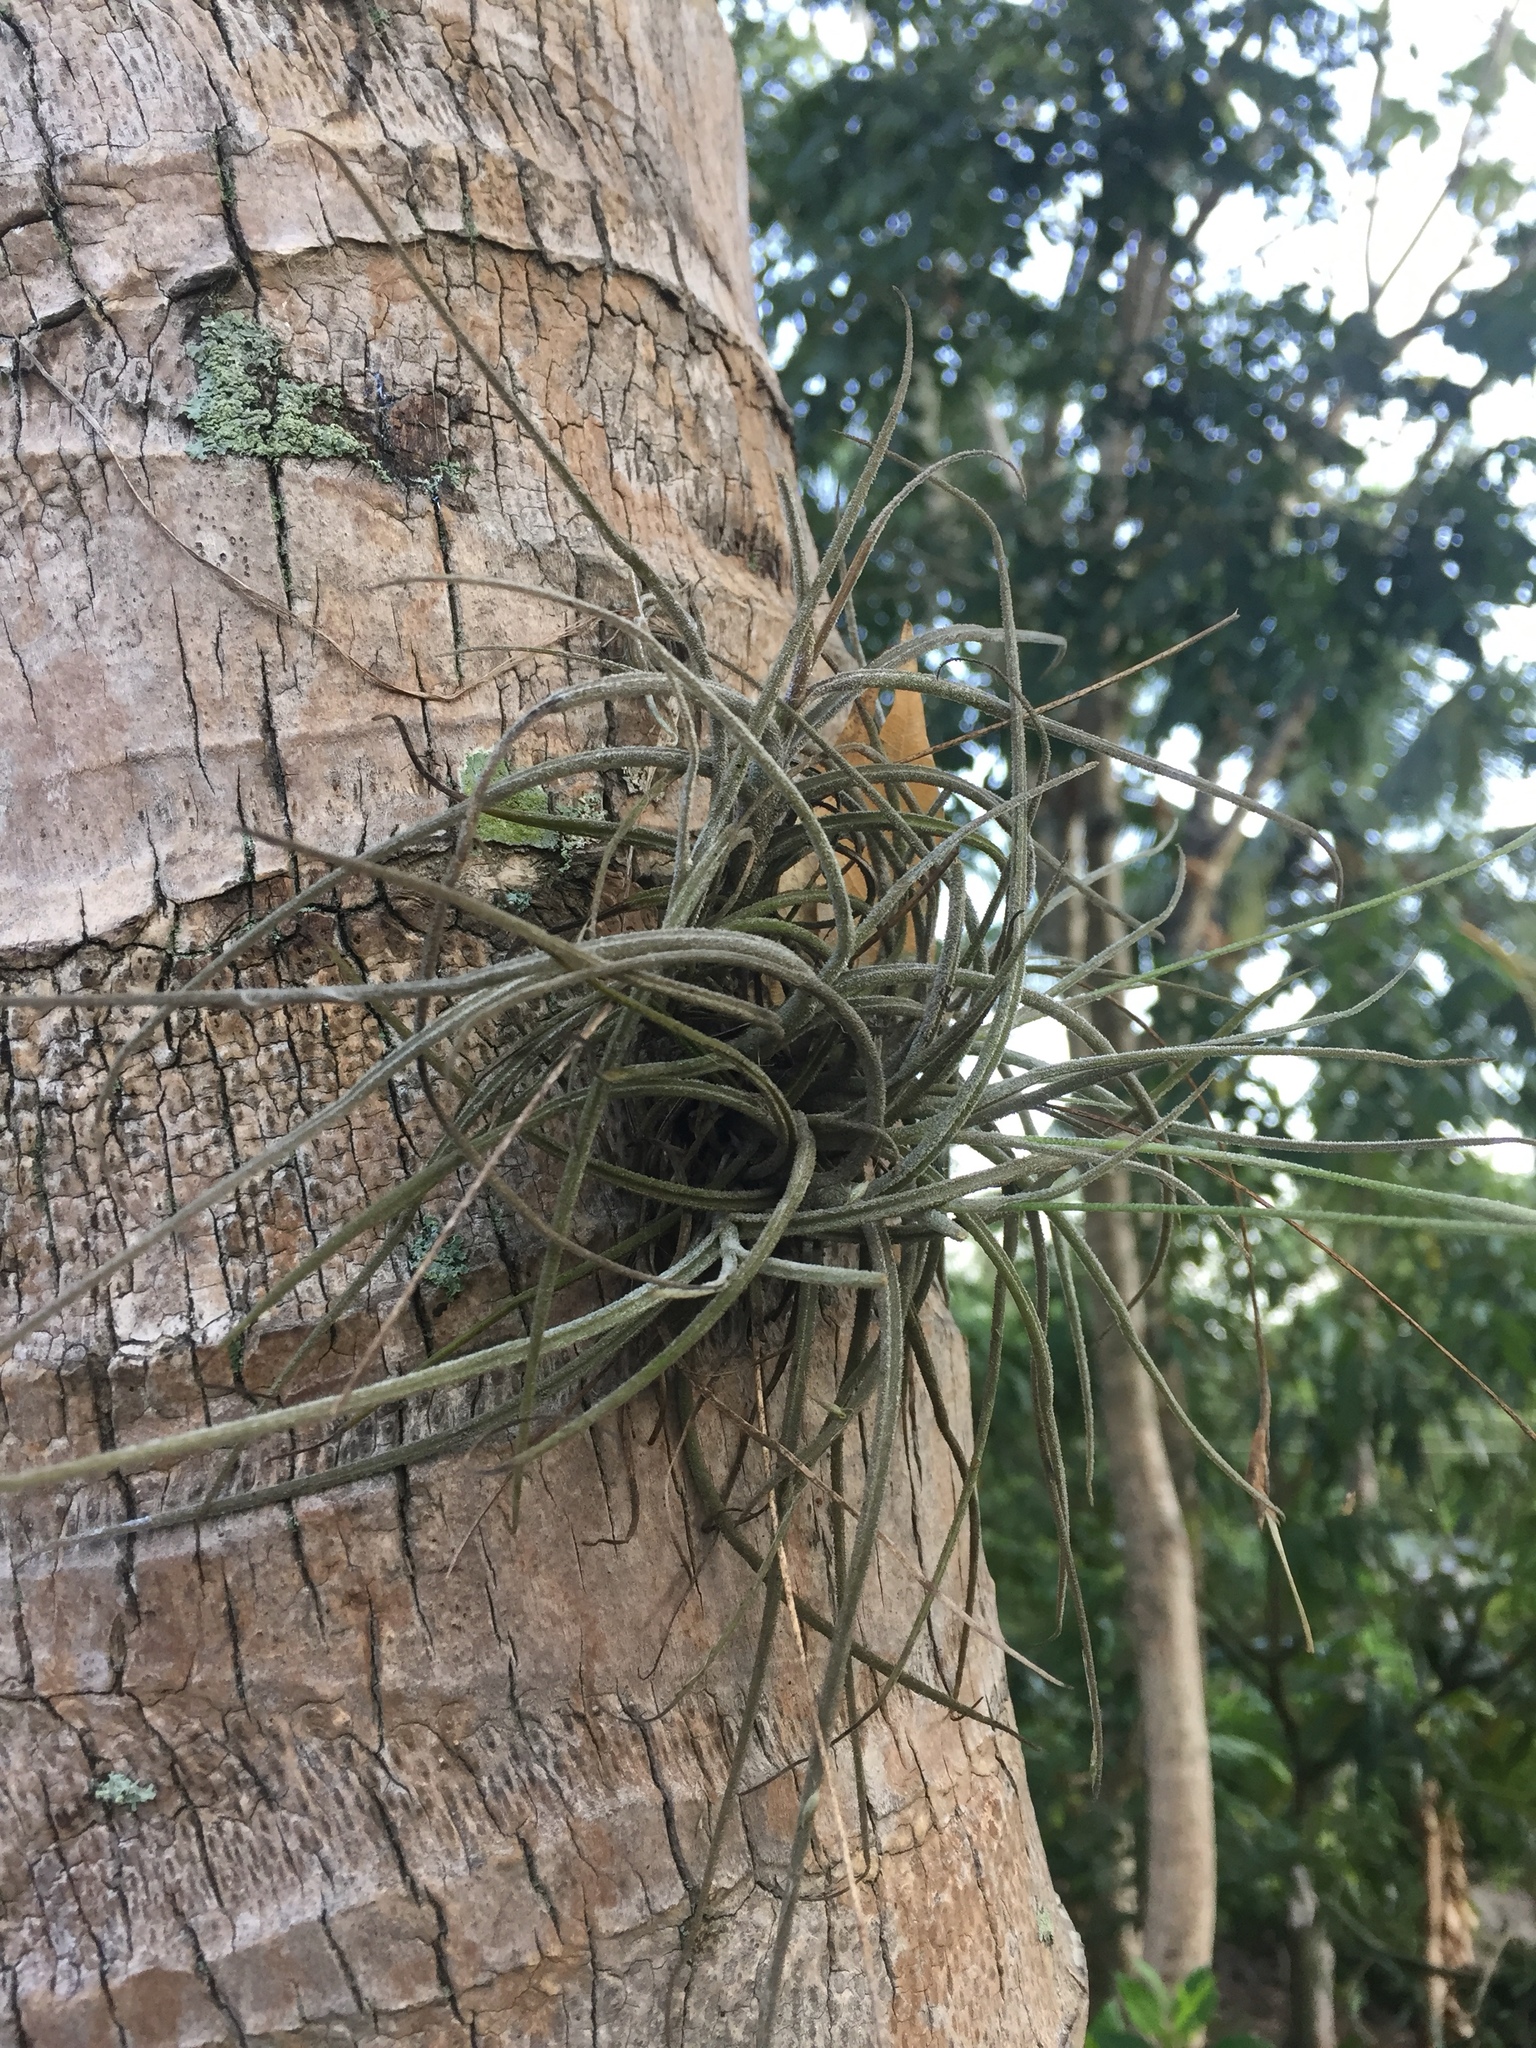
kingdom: Plantae
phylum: Tracheophyta
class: Liliopsida
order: Poales
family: Bromeliaceae
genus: Tillandsia
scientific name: Tillandsia recurvata
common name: Small ballmoss
